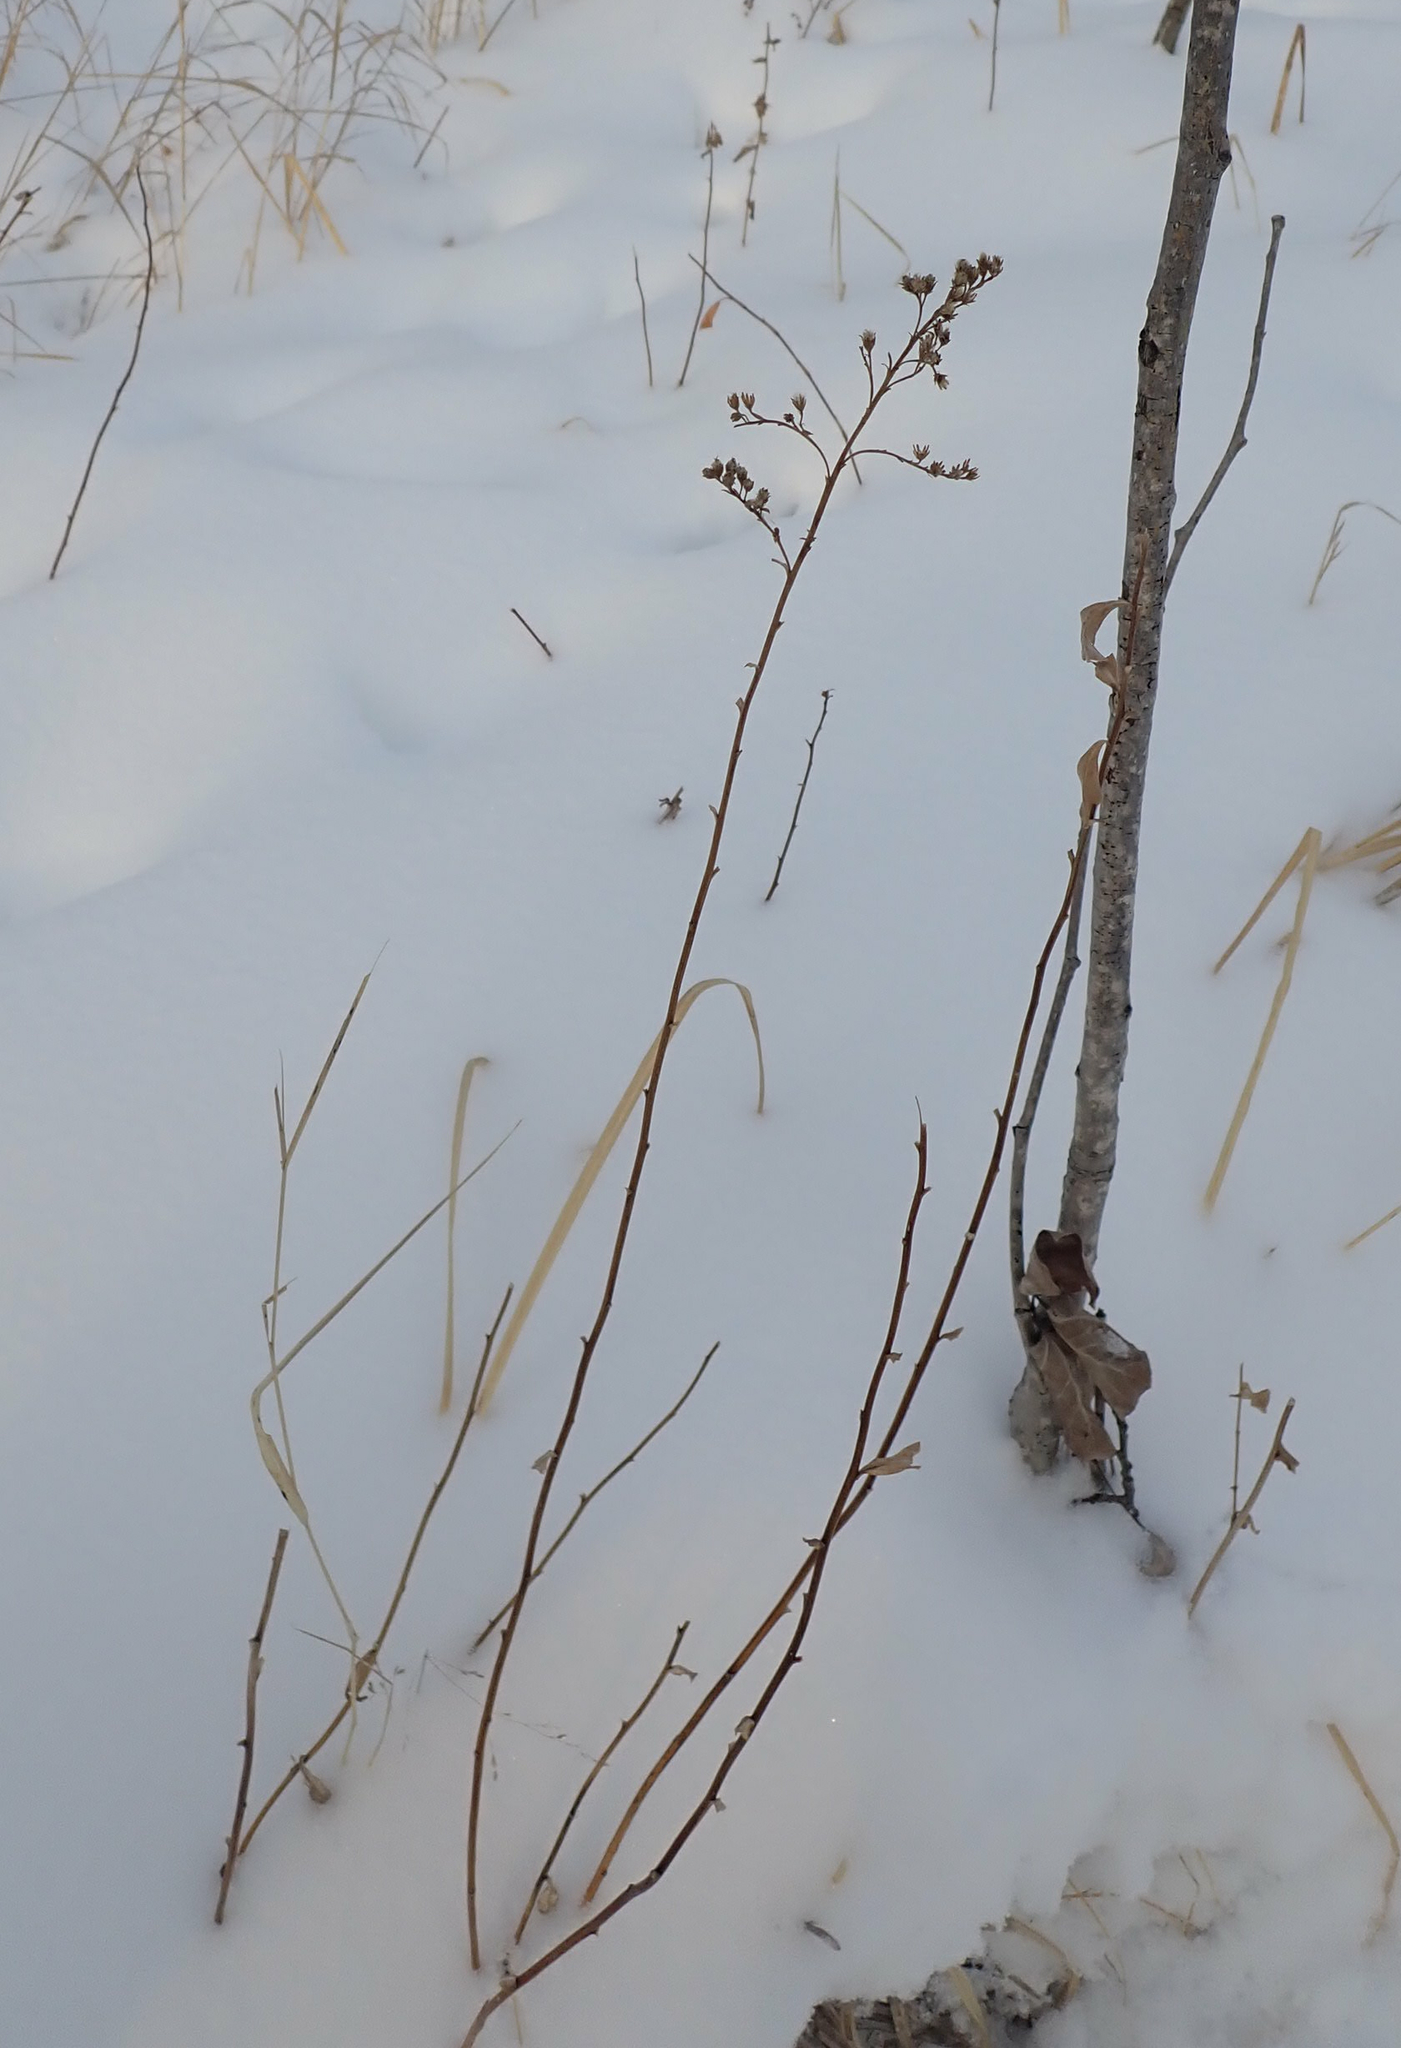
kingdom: Plantae
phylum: Tracheophyta
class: Magnoliopsida
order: Rosales
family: Rosaceae
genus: Spiraea
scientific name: Spiraea alba
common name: Pale bridewort
